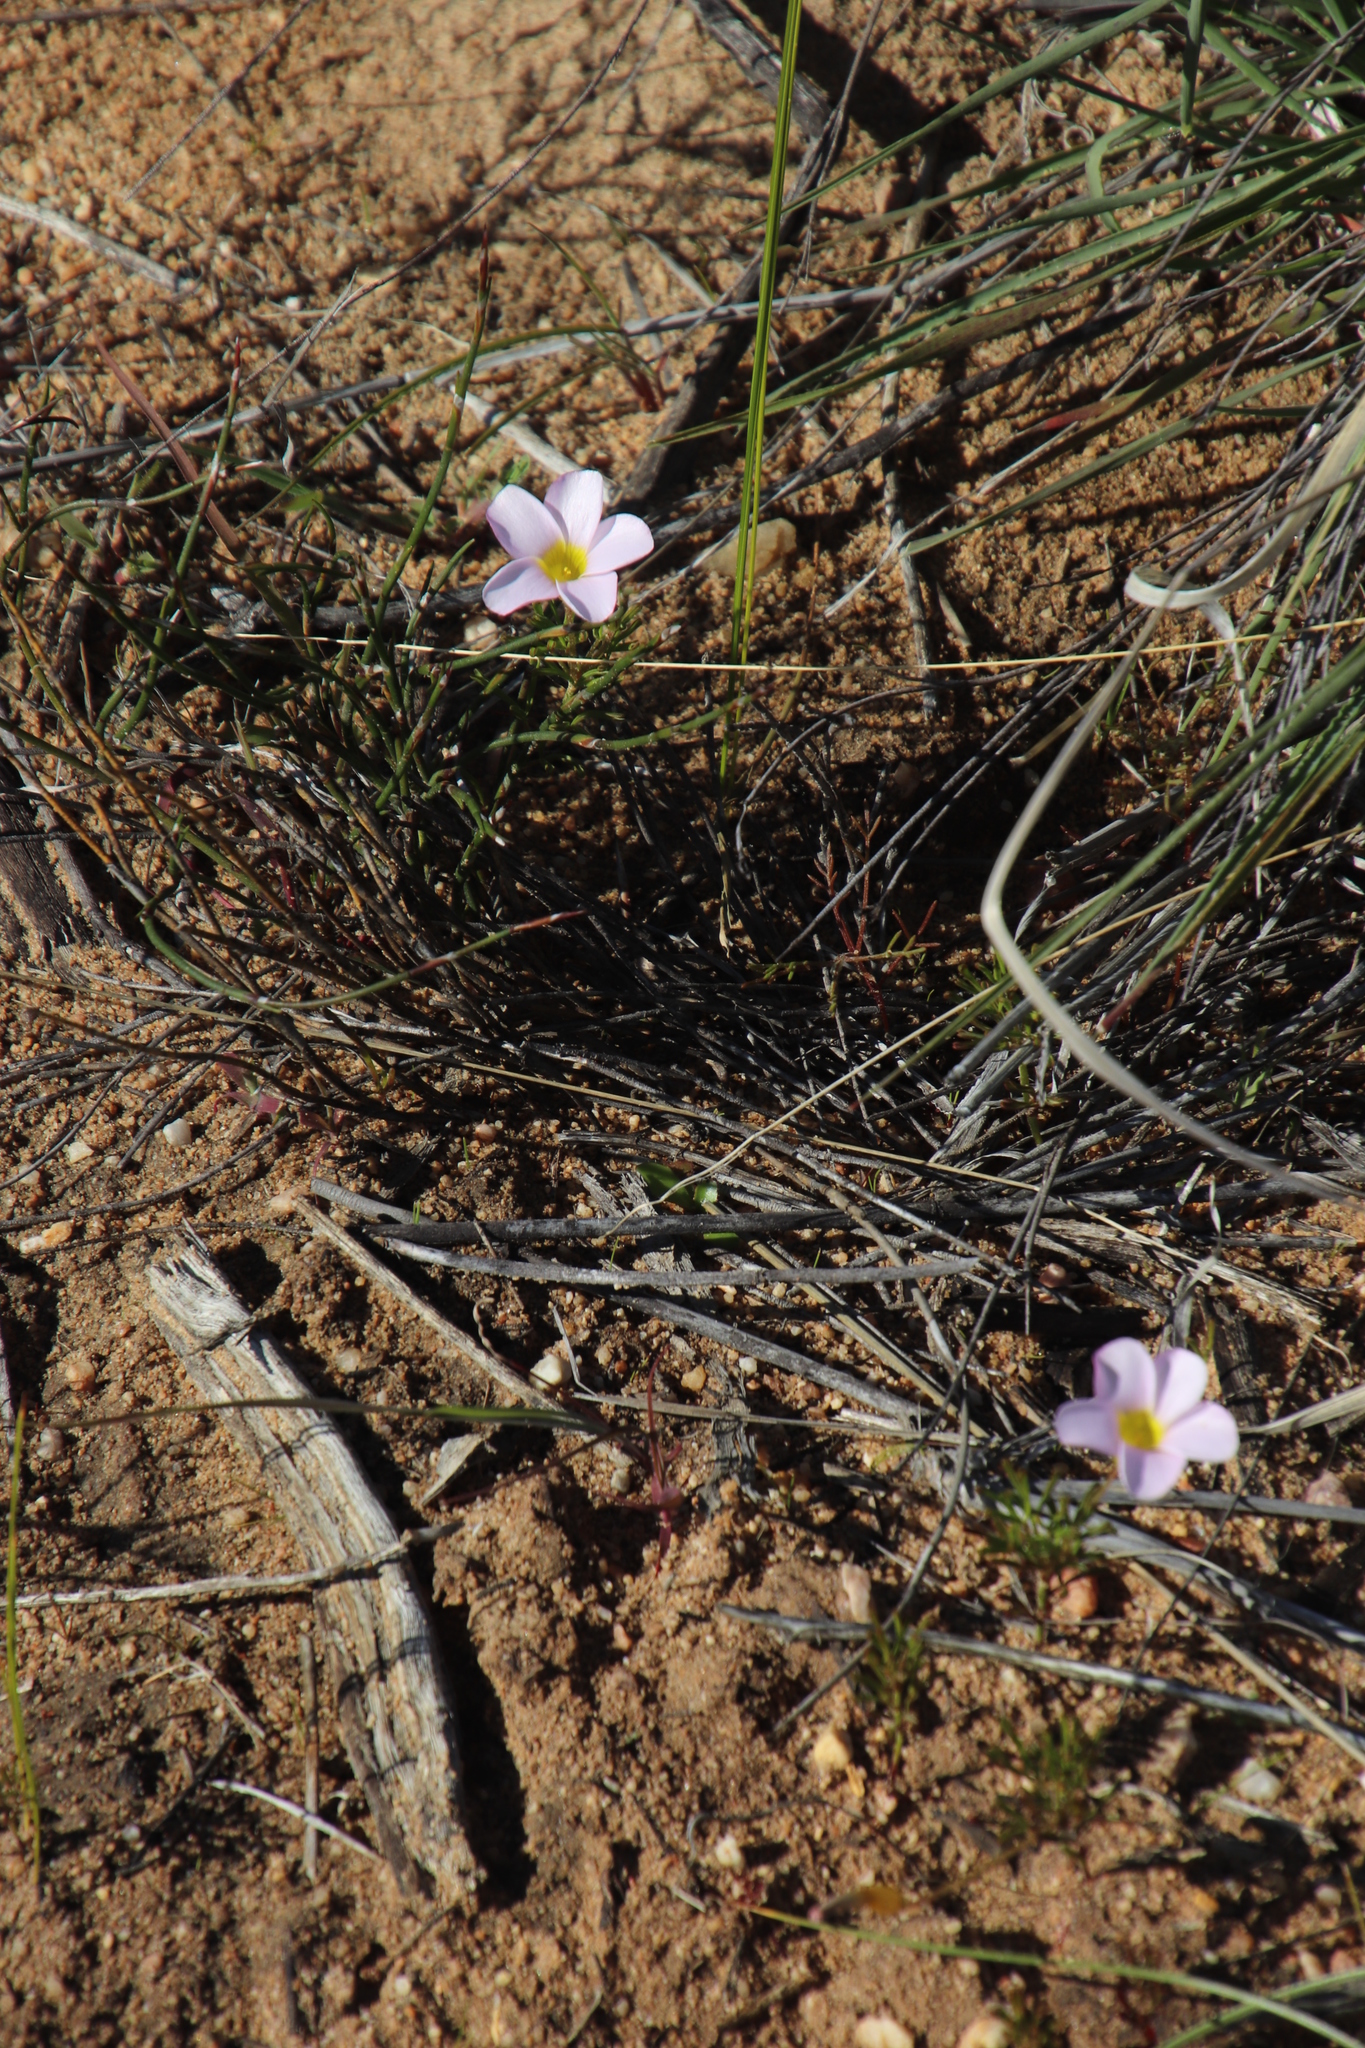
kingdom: Plantae
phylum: Tracheophyta
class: Magnoliopsida
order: Oxalidales
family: Oxalidaceae
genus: Oxalis
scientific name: Oxalis recticaulis
